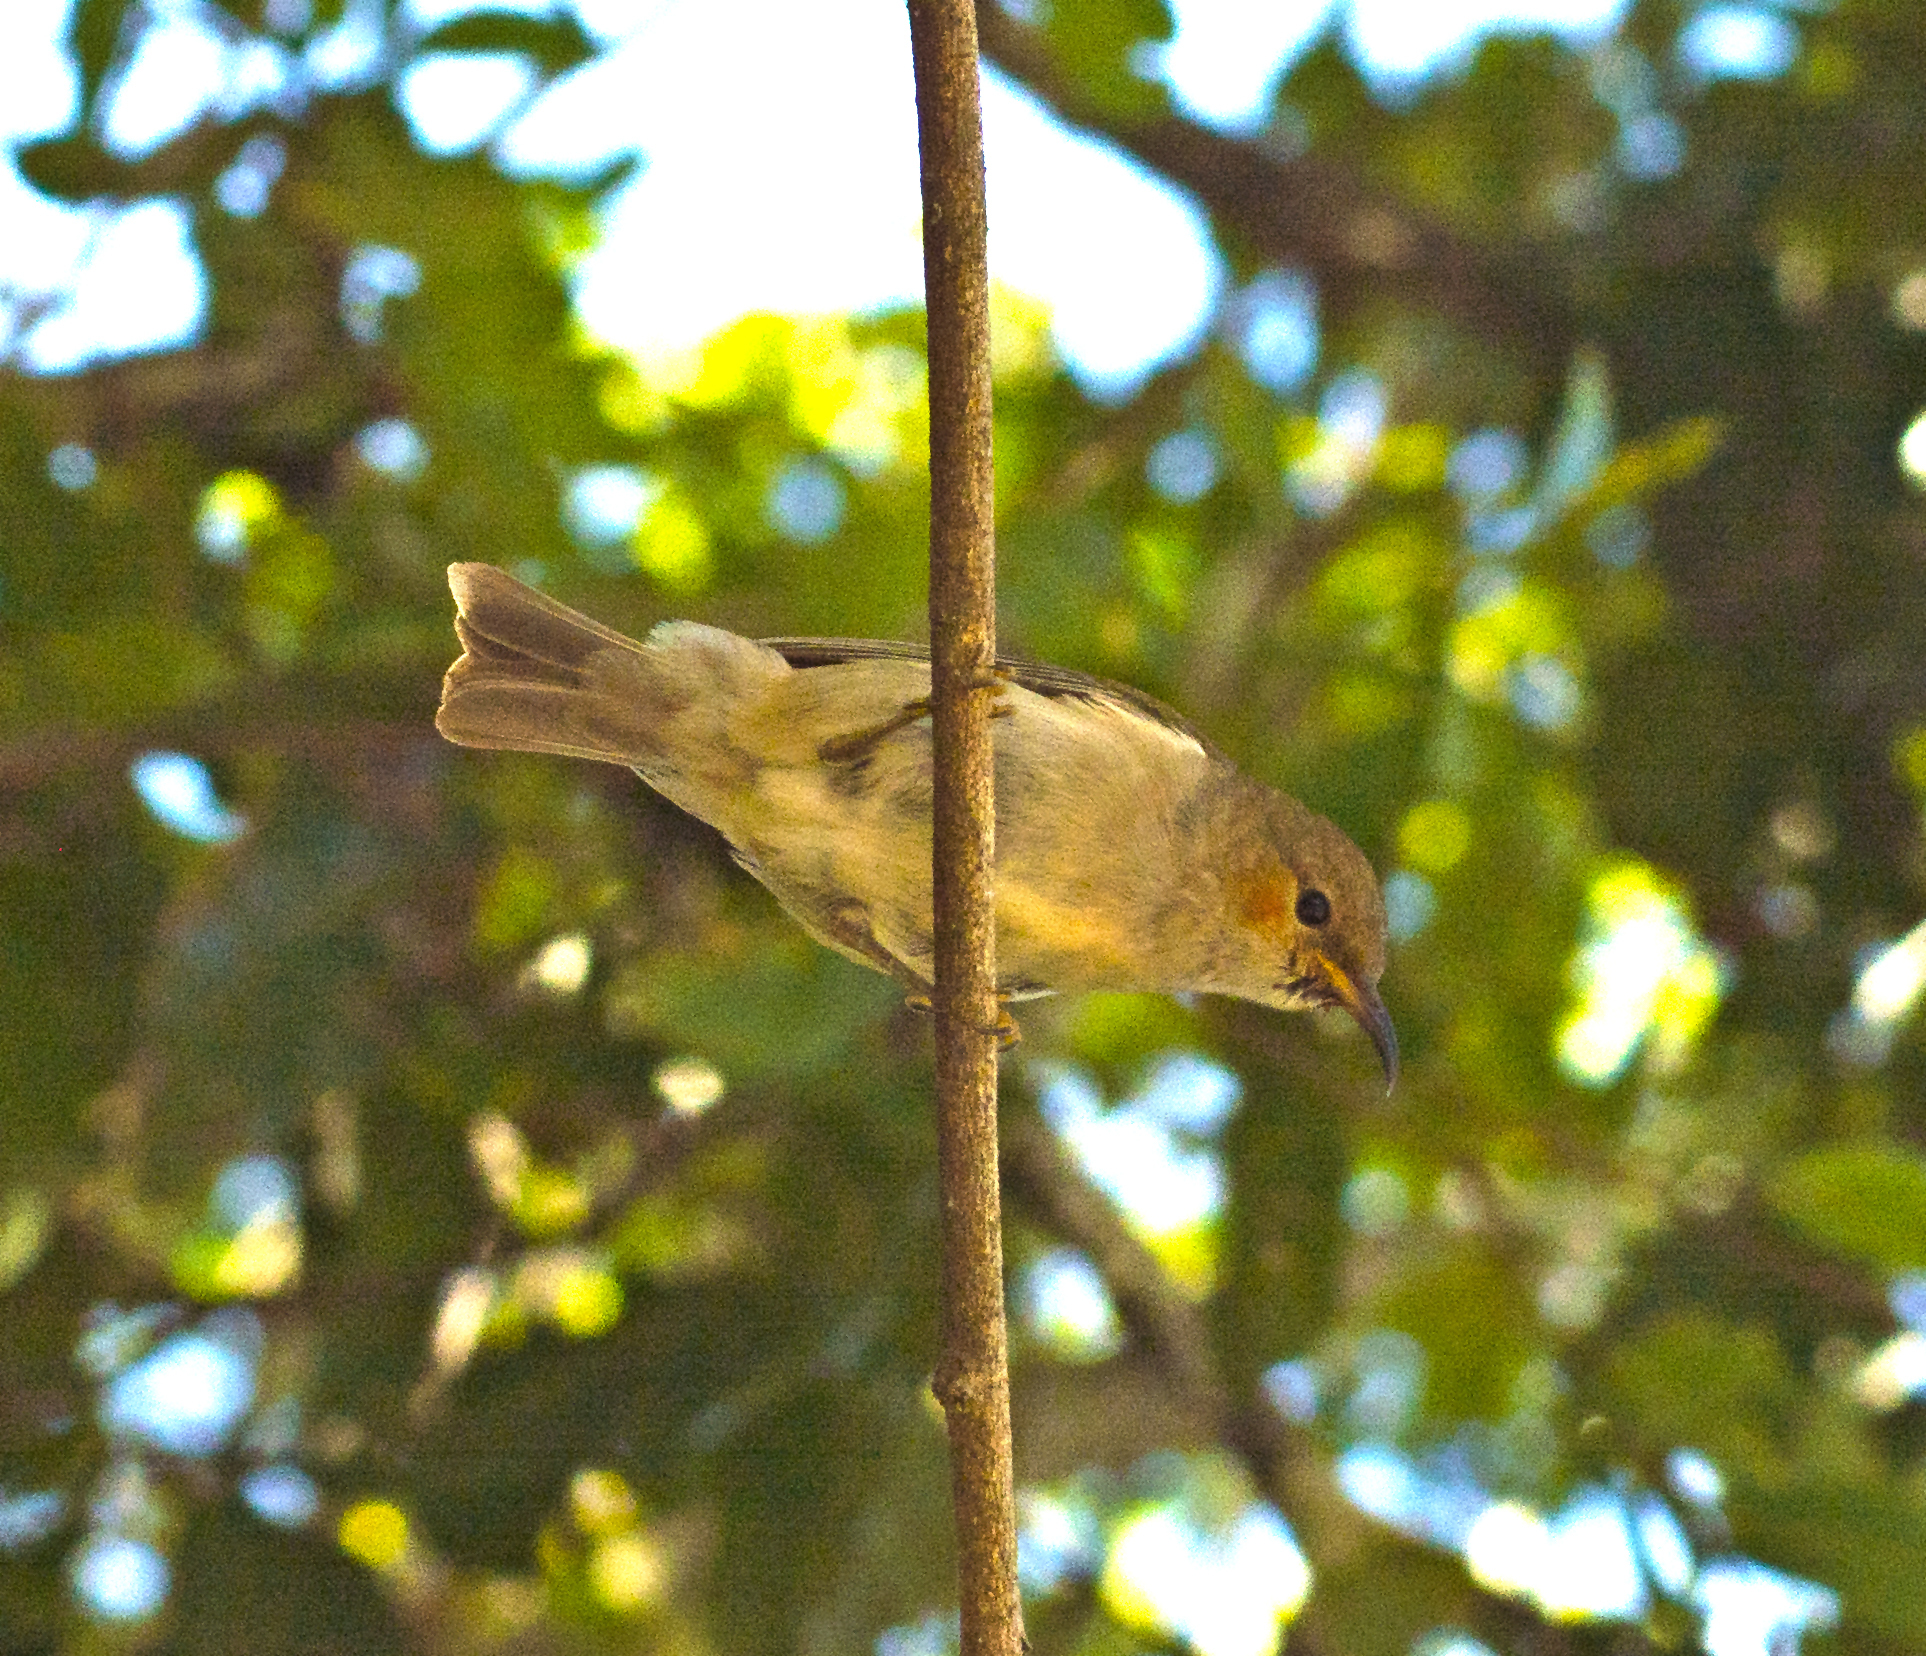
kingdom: Animalia
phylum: Chordata
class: Aves
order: Passeriformes
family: Meliphagidae
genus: Myzomela
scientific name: Myzomela sanguinolenta
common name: Scarlet myzomela
